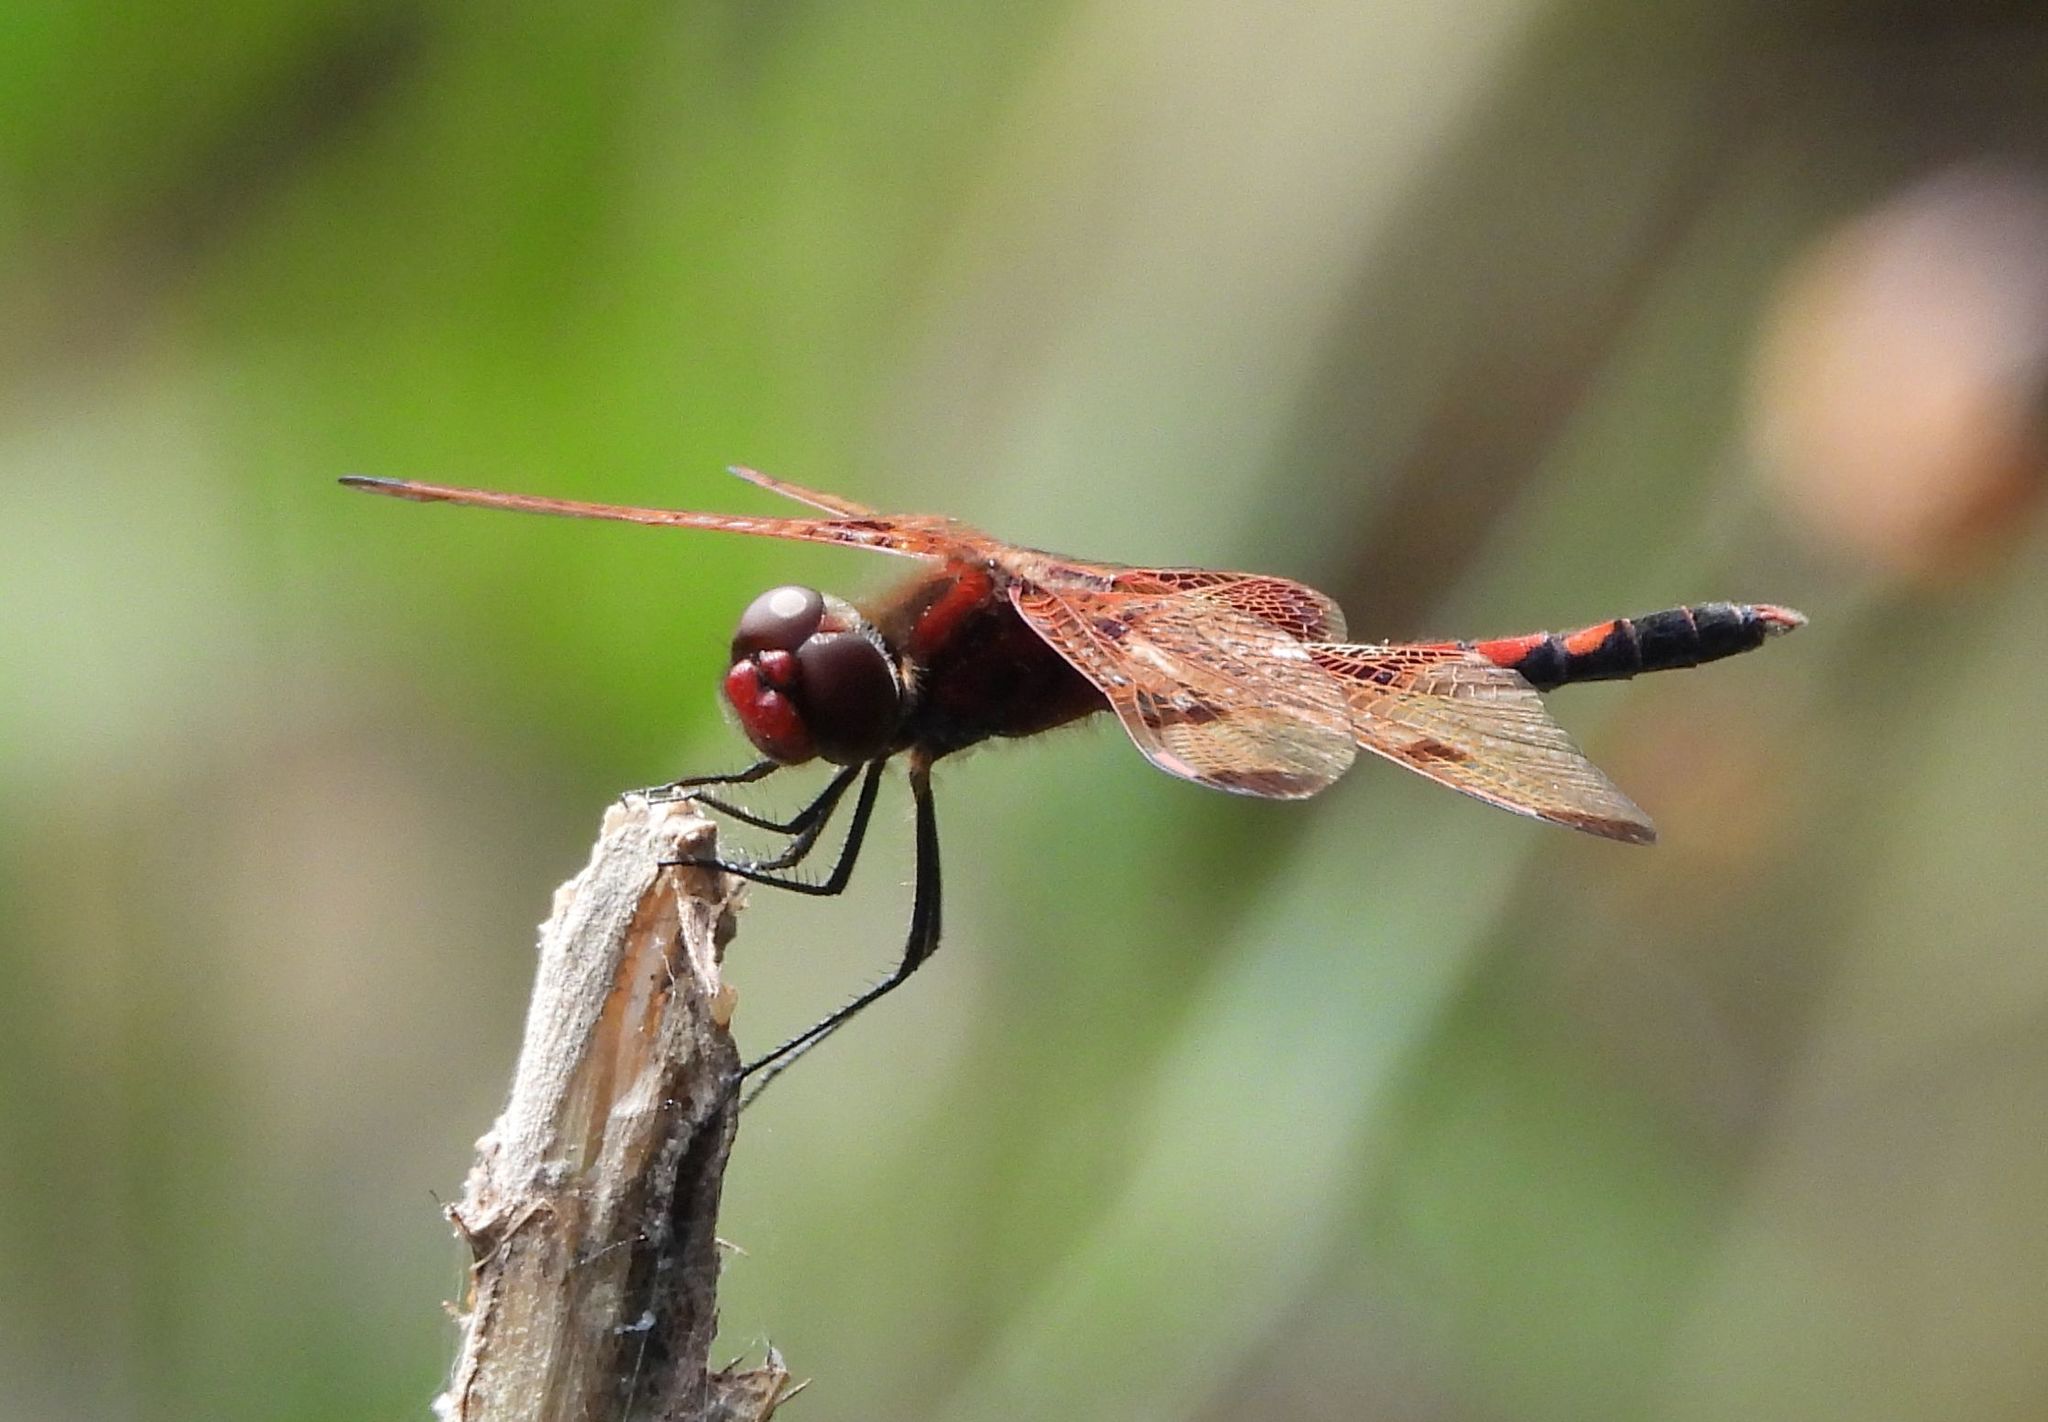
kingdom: Animalia
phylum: Arthropoda
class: Insecta
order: Odonata
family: Libellulidae
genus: Celithemis
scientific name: Celithemis elisa
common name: Calico pennant
